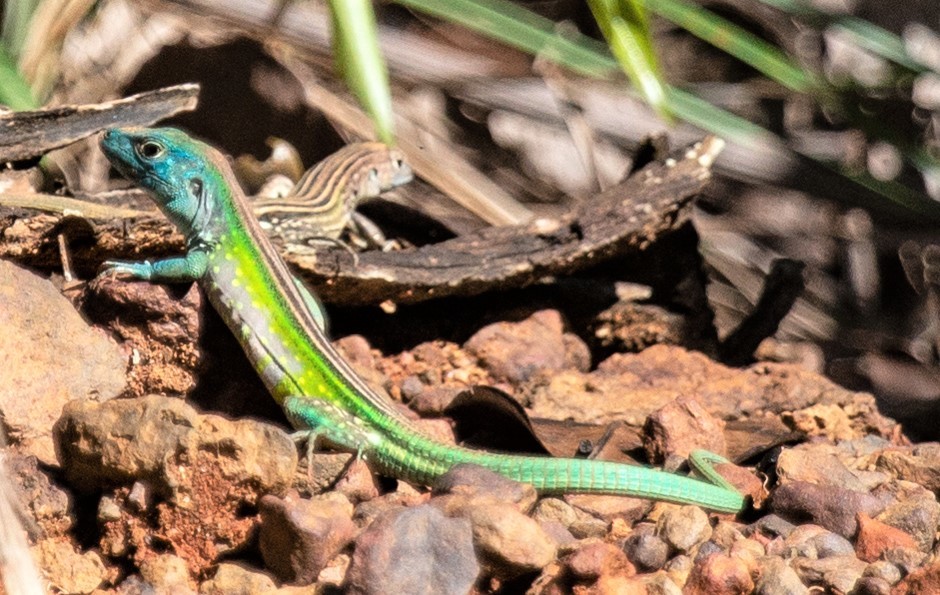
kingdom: Animalia
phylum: Chordata
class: Squamata
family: Teiidae
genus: Cnemidophorus
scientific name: Cnemidophorus lemniscatus
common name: Rainbow whiptail
